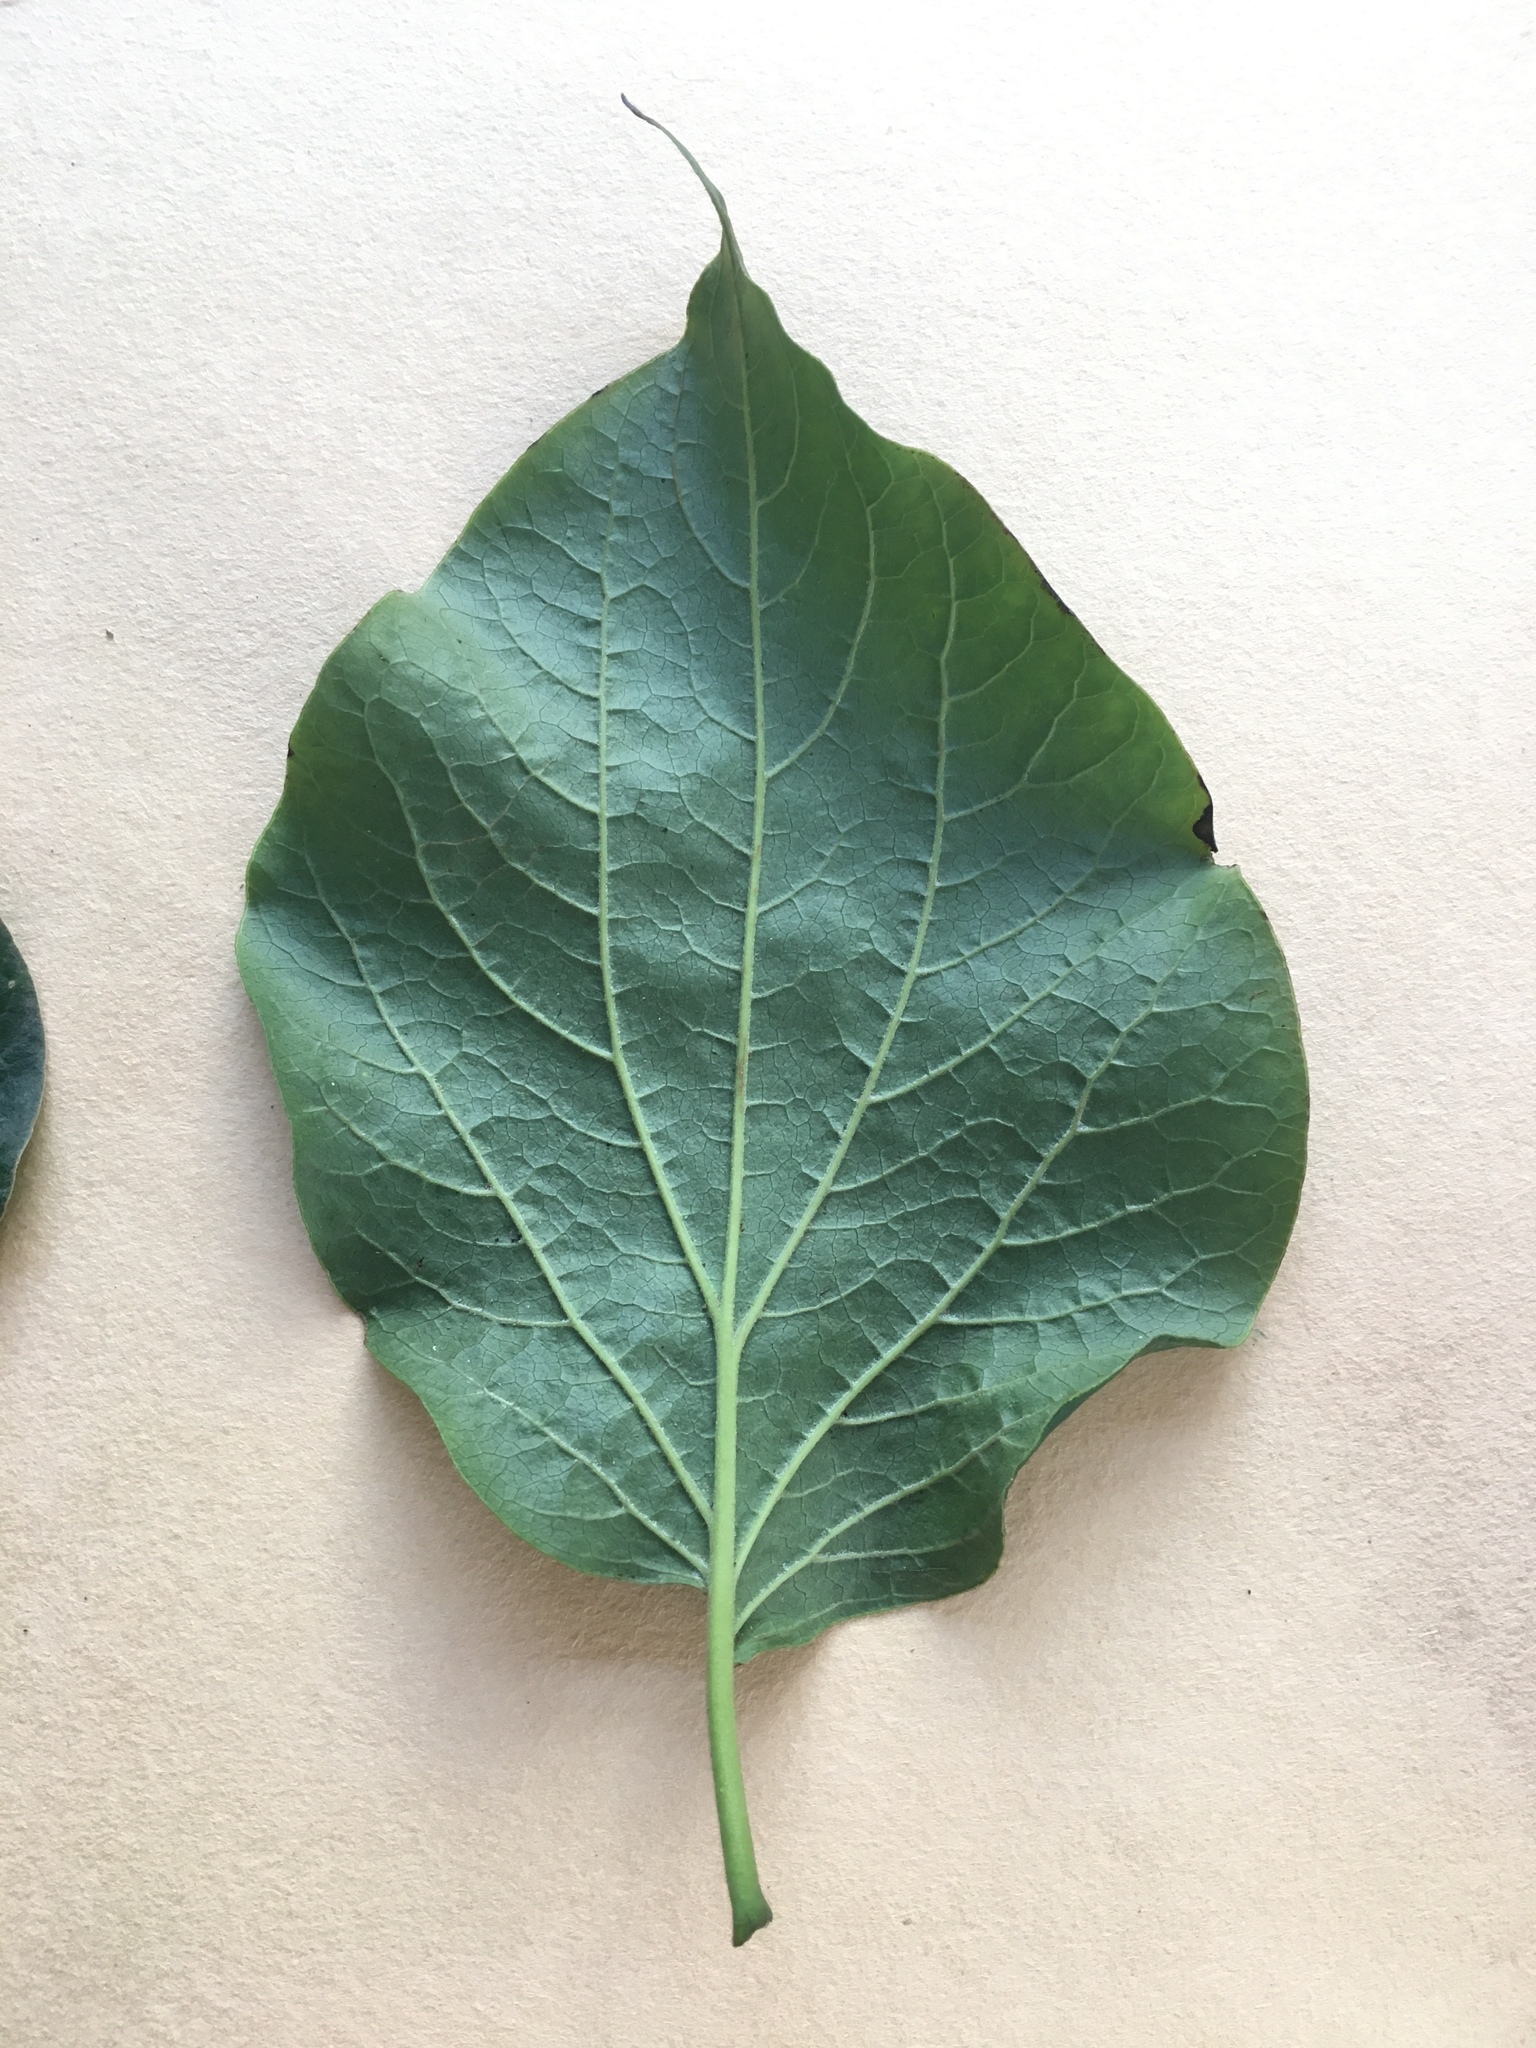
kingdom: Plantae
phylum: Tracheophyta
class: Magnoliopsida
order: Piperales
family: Piperaceae
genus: Piper
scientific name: Piper barbatum
